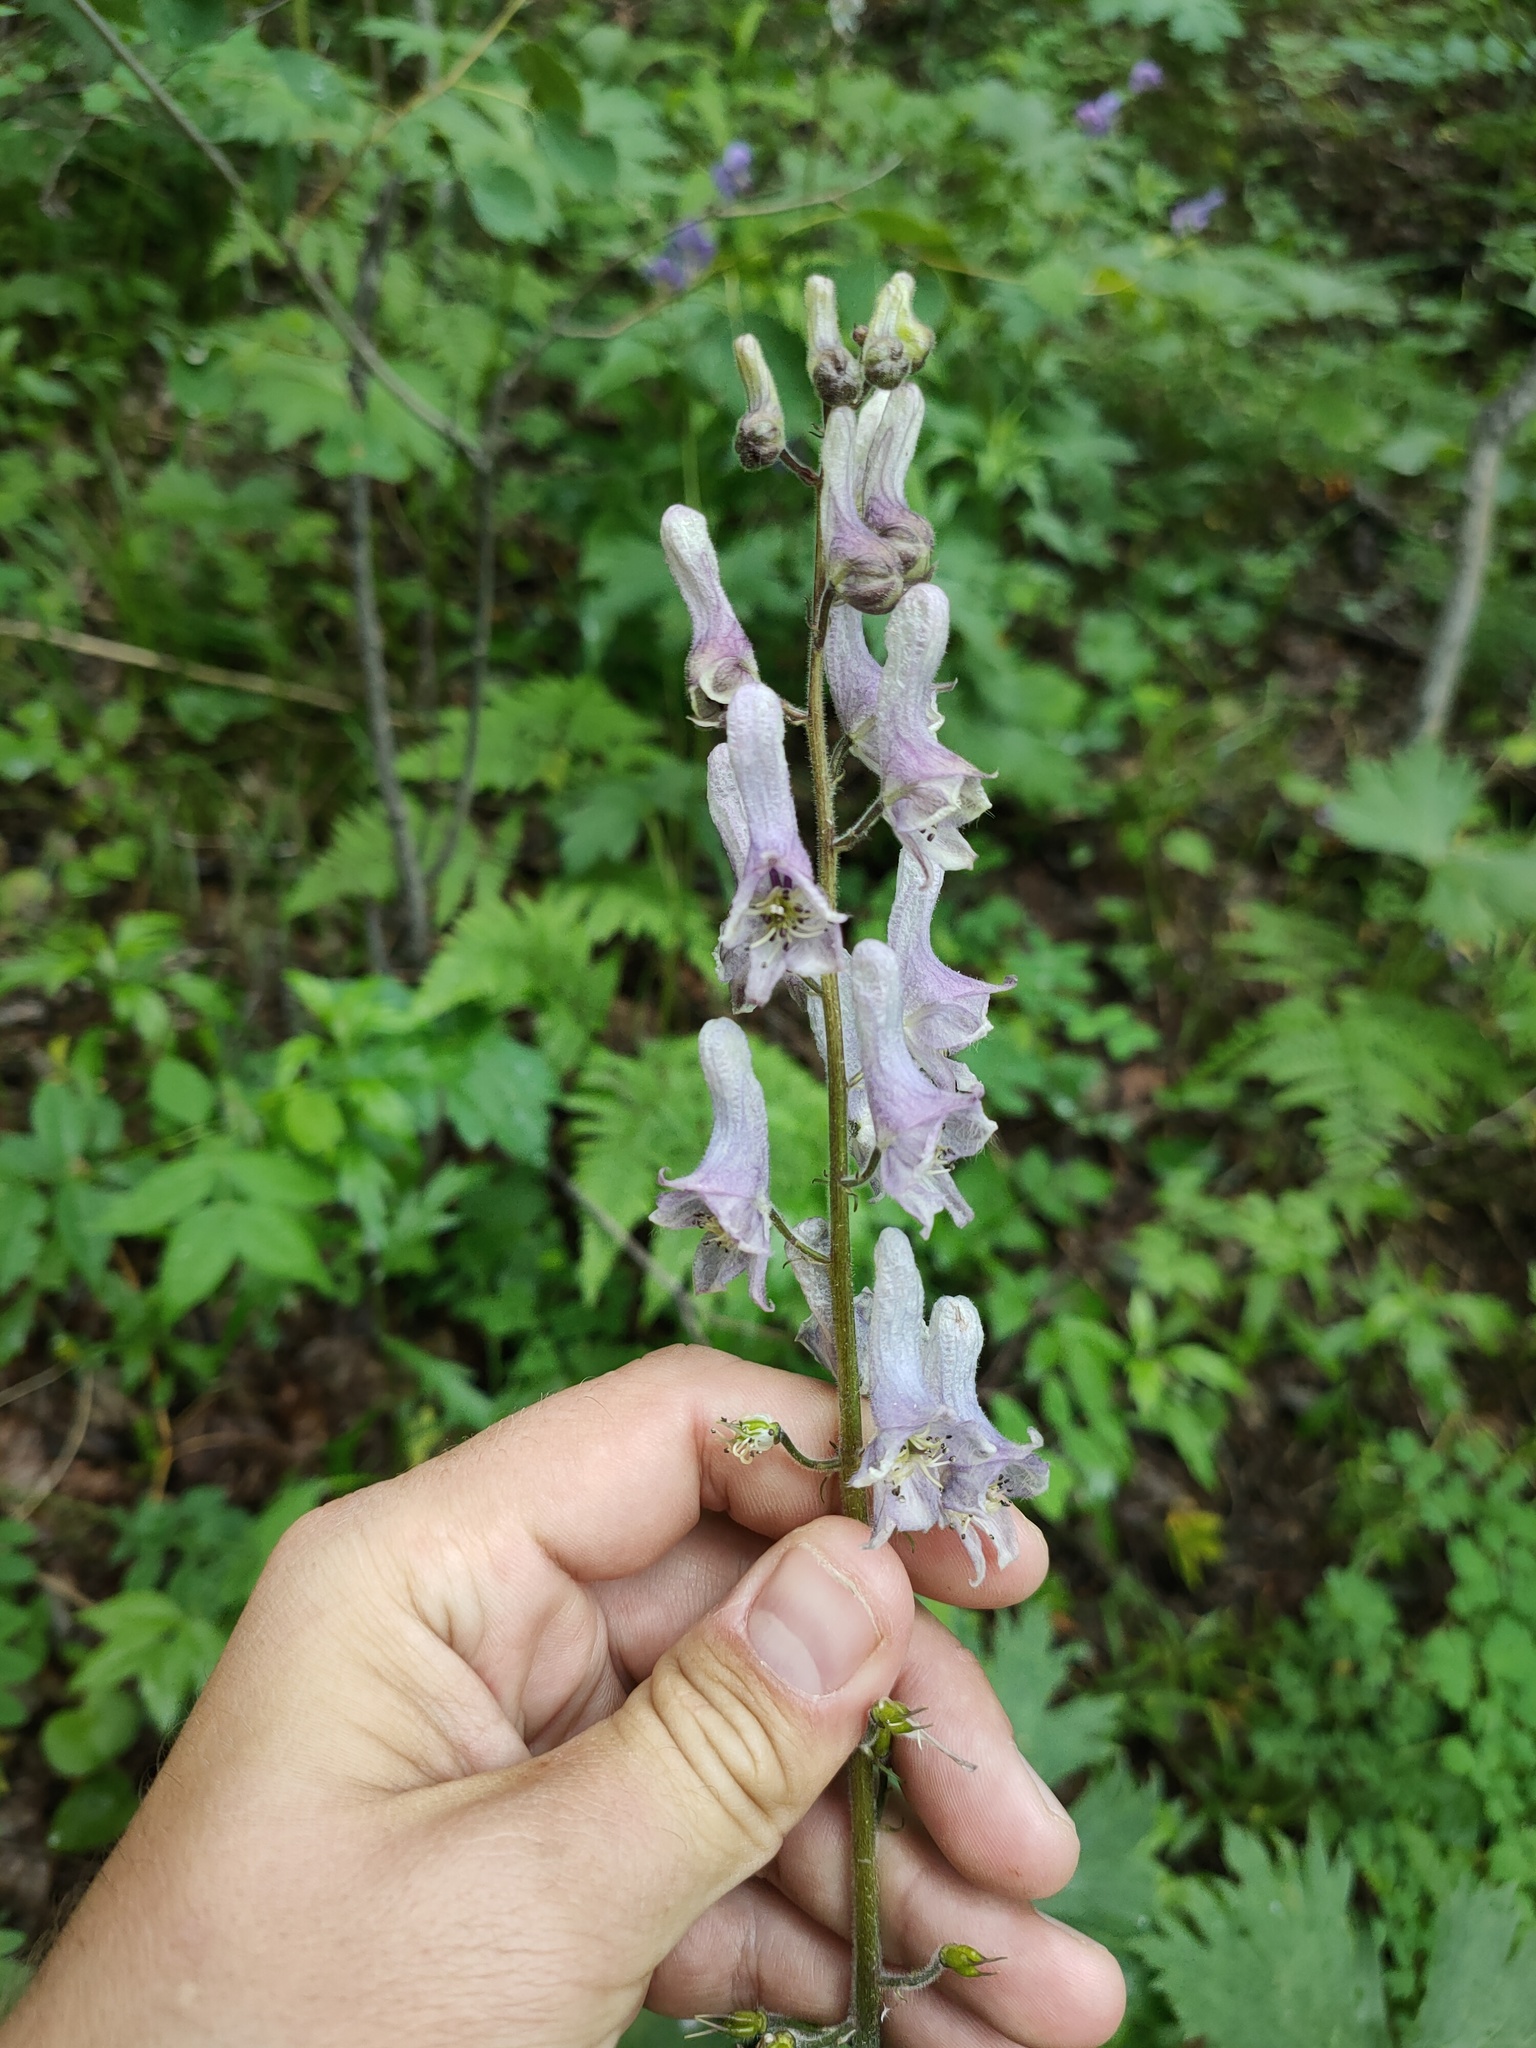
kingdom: Plantae
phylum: Tracheophyta
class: Magnoliopsida
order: Ranunculales
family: Ranunculaceae
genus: Aconitum
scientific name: Aconitum septentrionale
